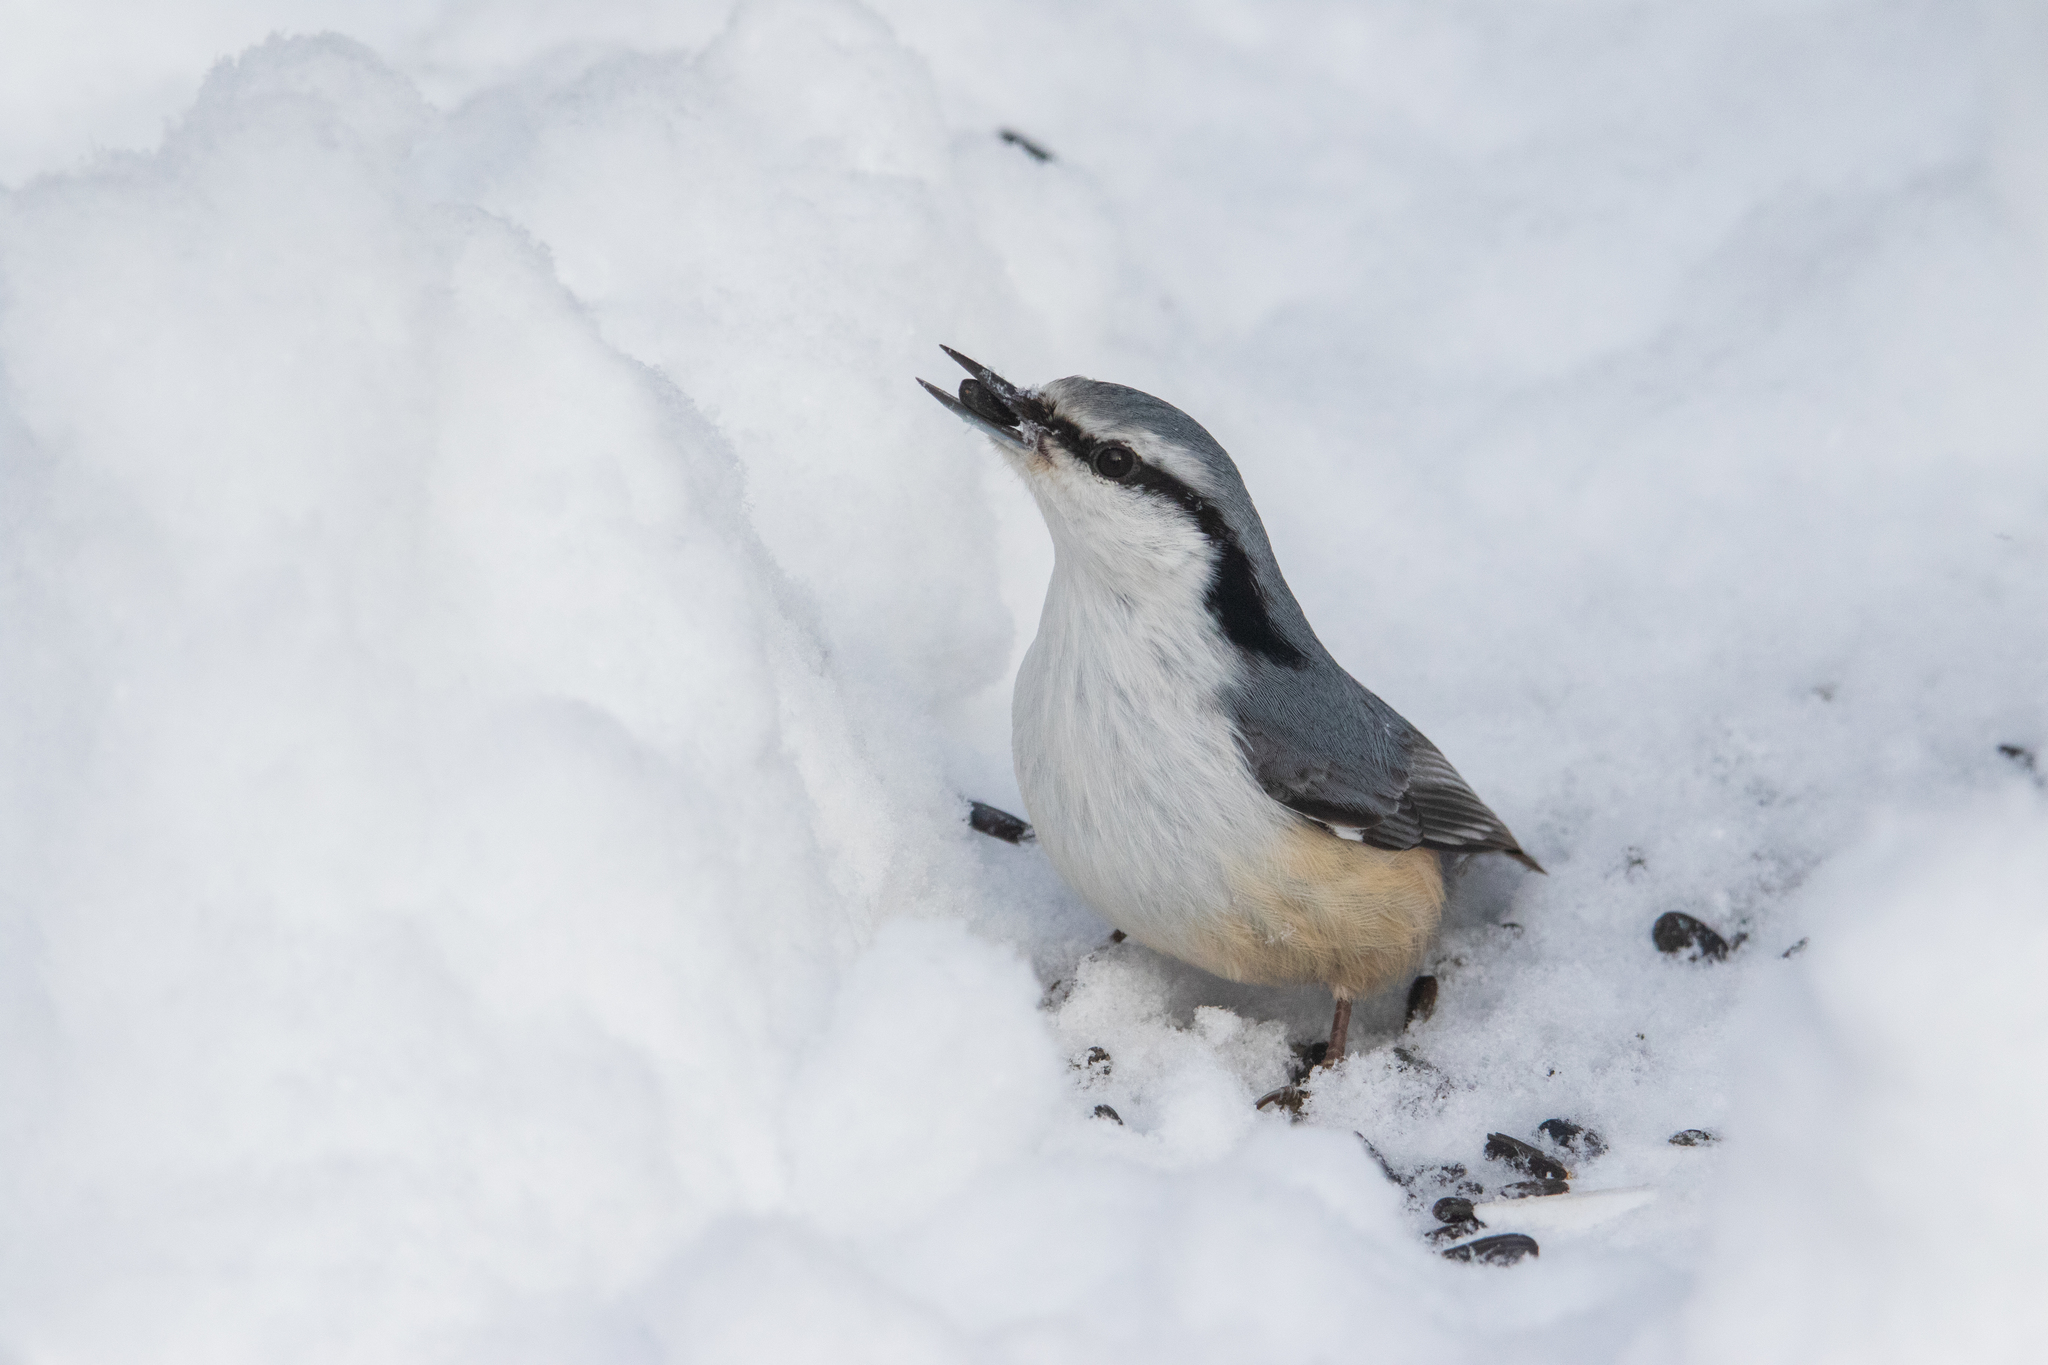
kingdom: Animalia
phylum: Chordata
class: Aves
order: Passeriformes
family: Sittidae
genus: Sitta
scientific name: Sitta europaea
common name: Eurasian nuthatch
